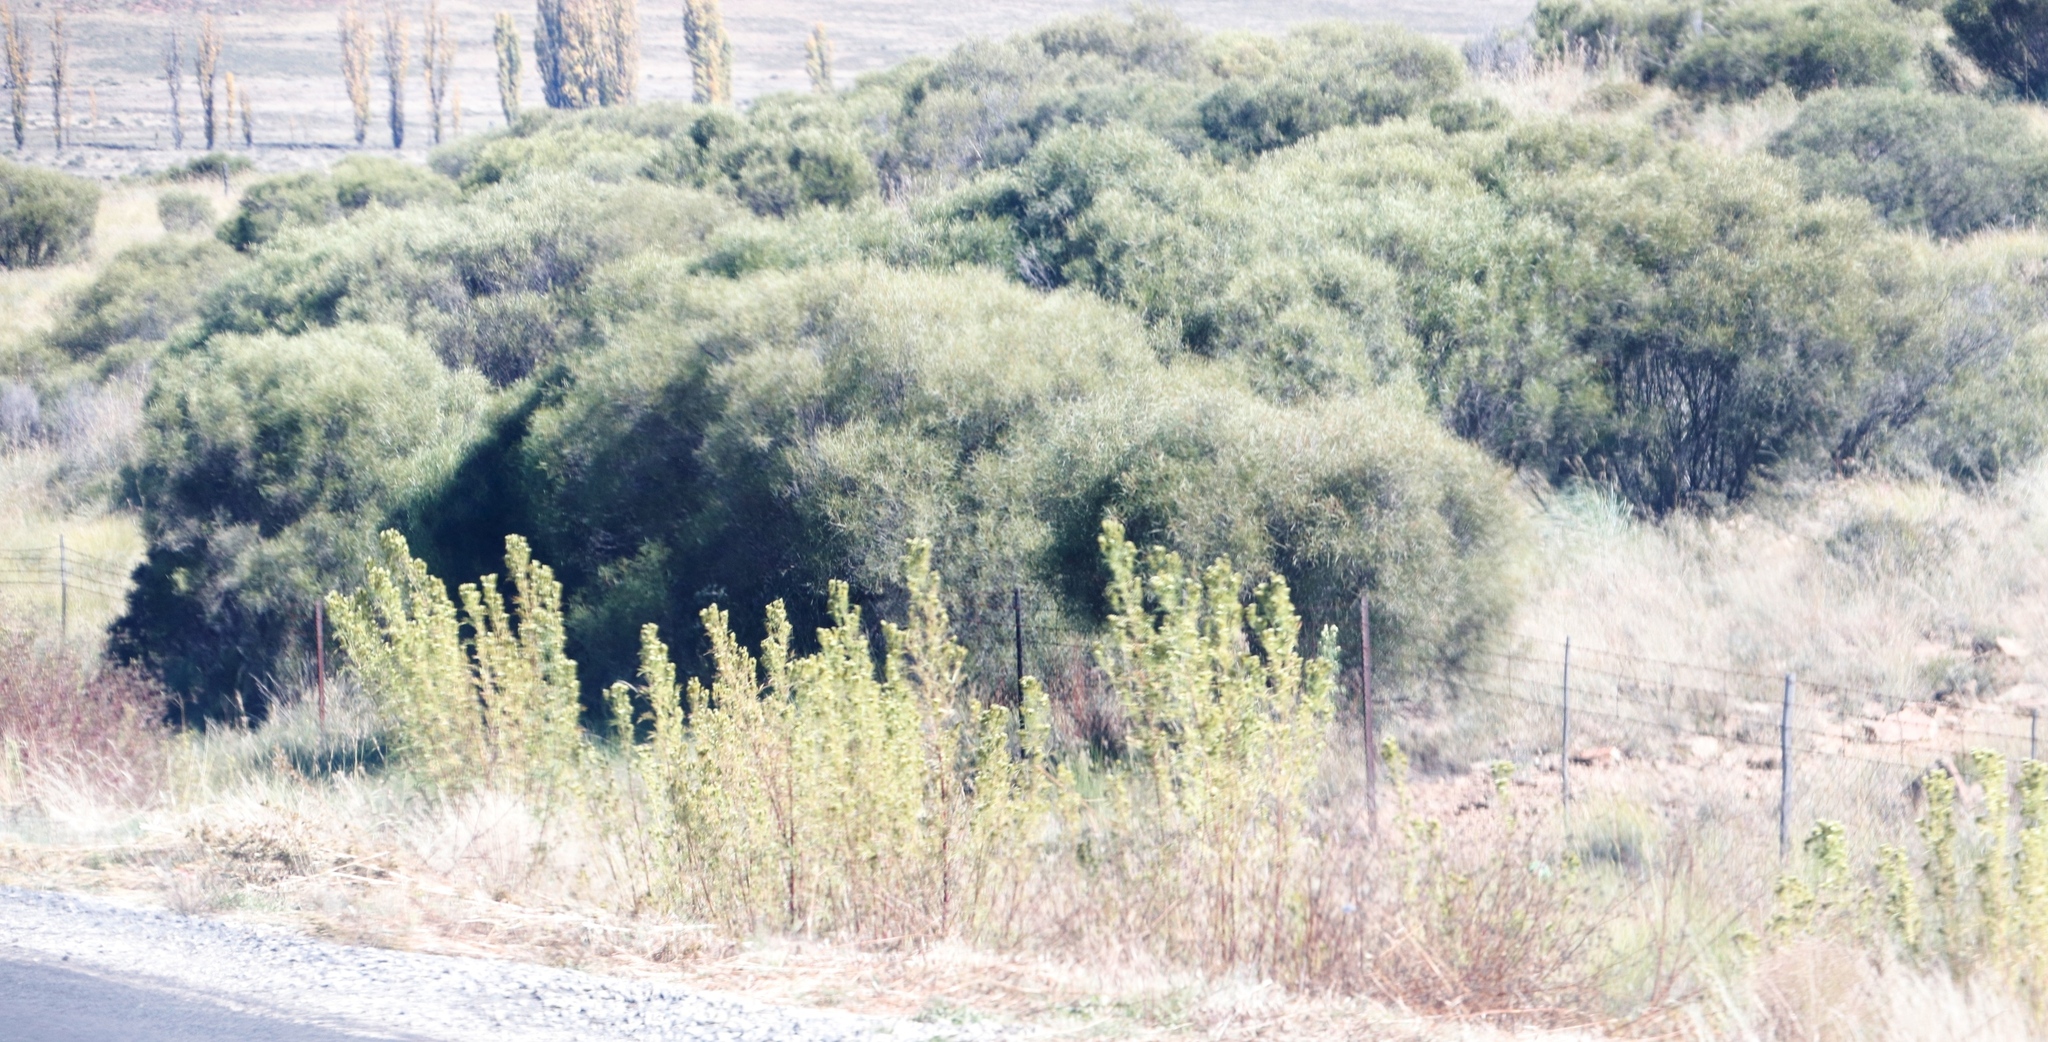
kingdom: Plantae
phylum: Tracheophyta
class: Magnoliopsida
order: Asterales
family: Asteraceae
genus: Tagetes
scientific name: Tagetes minuta
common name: Muster john henry
